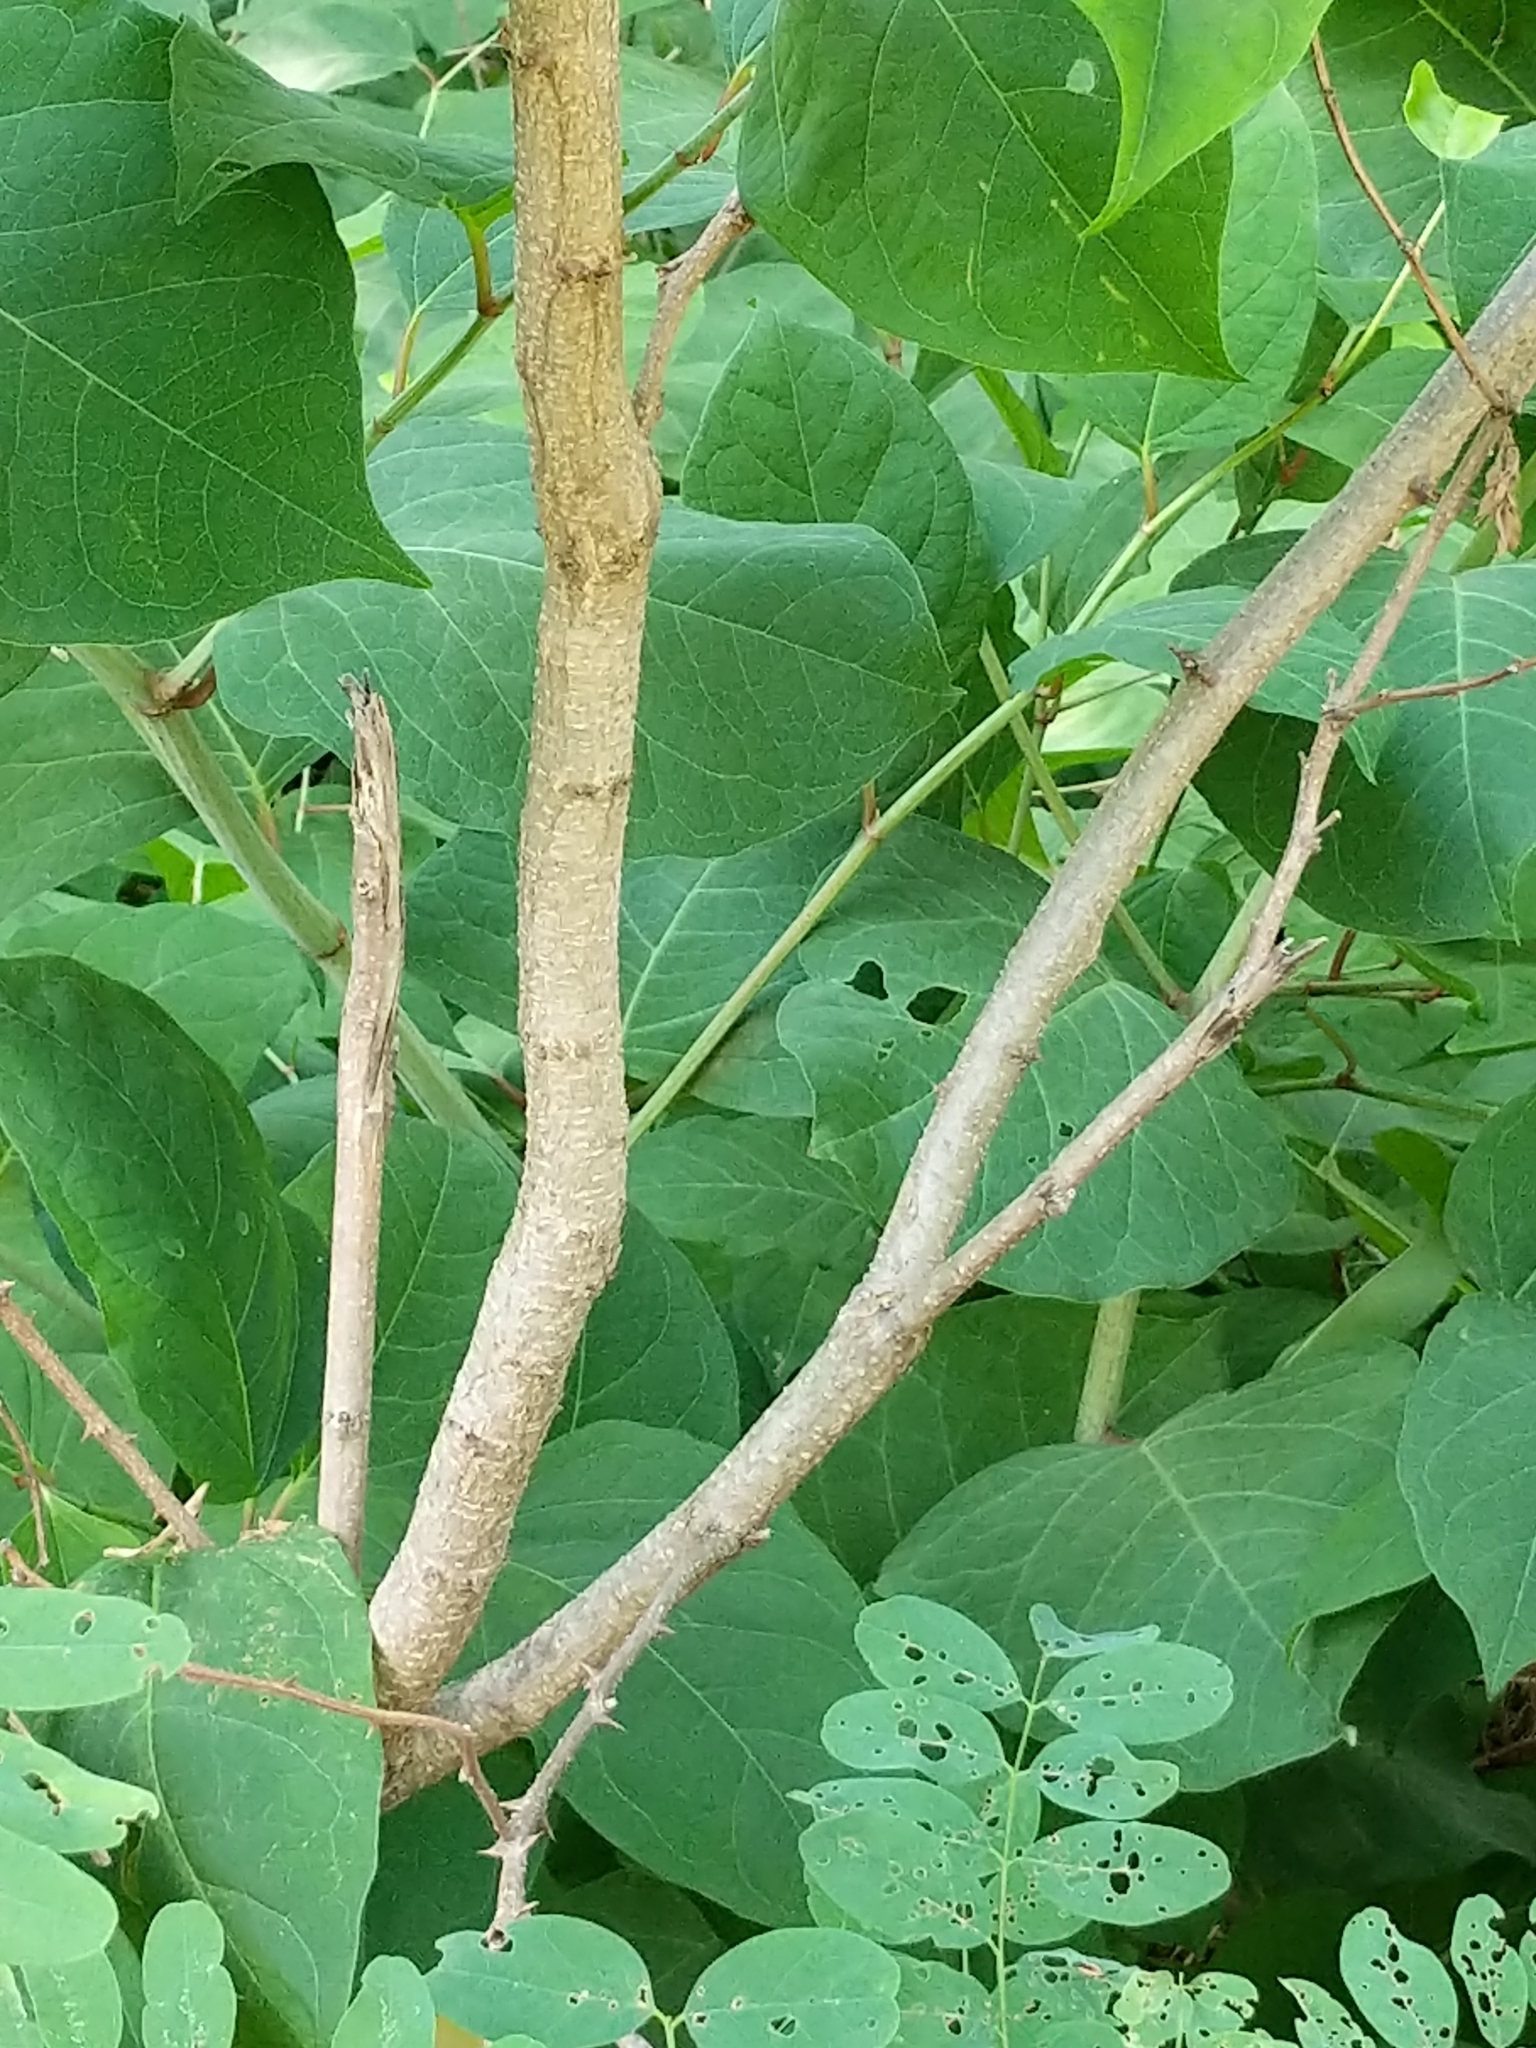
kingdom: Plantae
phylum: Tracheophyta
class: Magnoliopsida
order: Fabales
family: Fabaceae
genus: Robinia
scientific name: Robinia pseudoacacia
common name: Black locust
